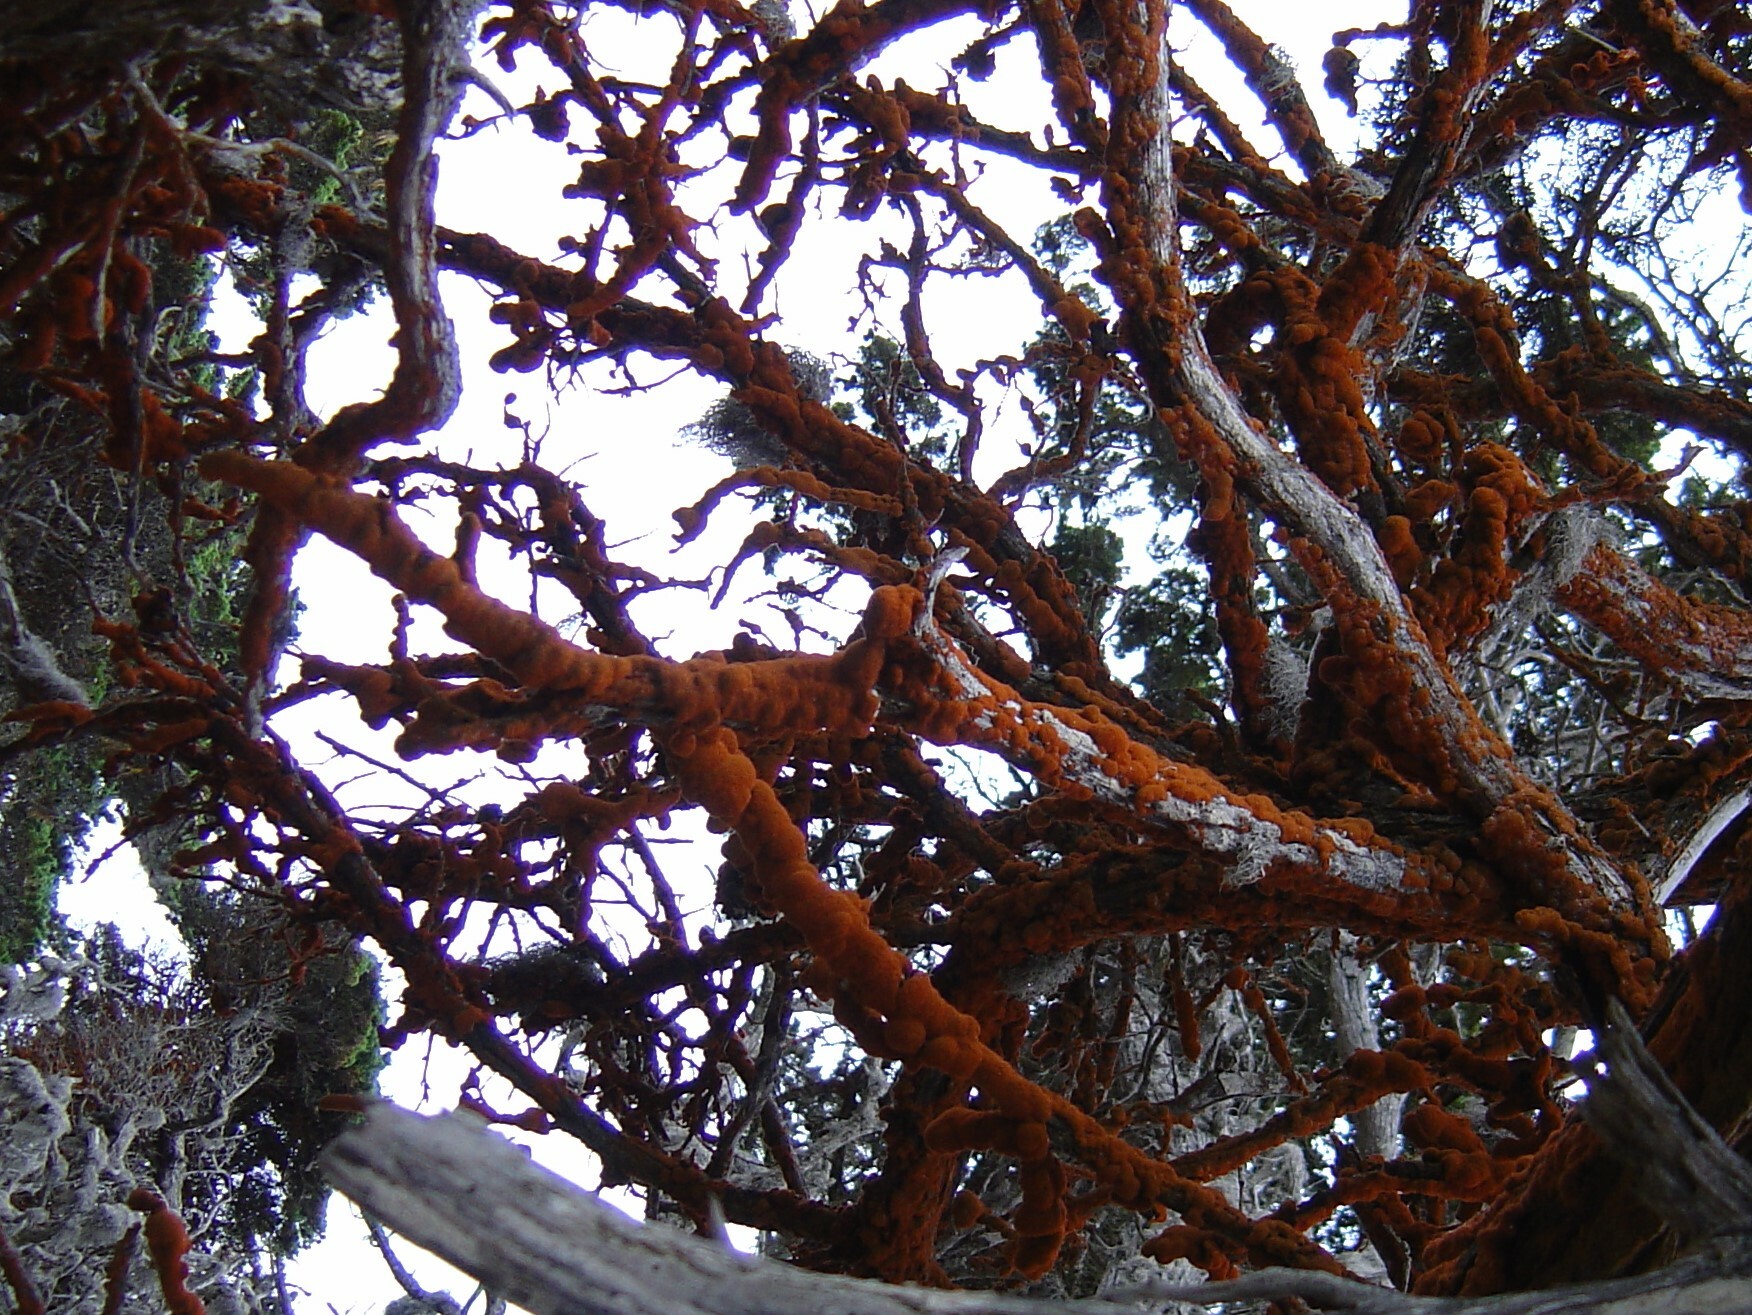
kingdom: Plantae
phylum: Chlorophyta
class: Ulvophyceae
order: Trentepohliales
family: Trentepohliaceae
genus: Trentepohlia
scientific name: Trentepohlia aurea
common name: Orange rock hair
